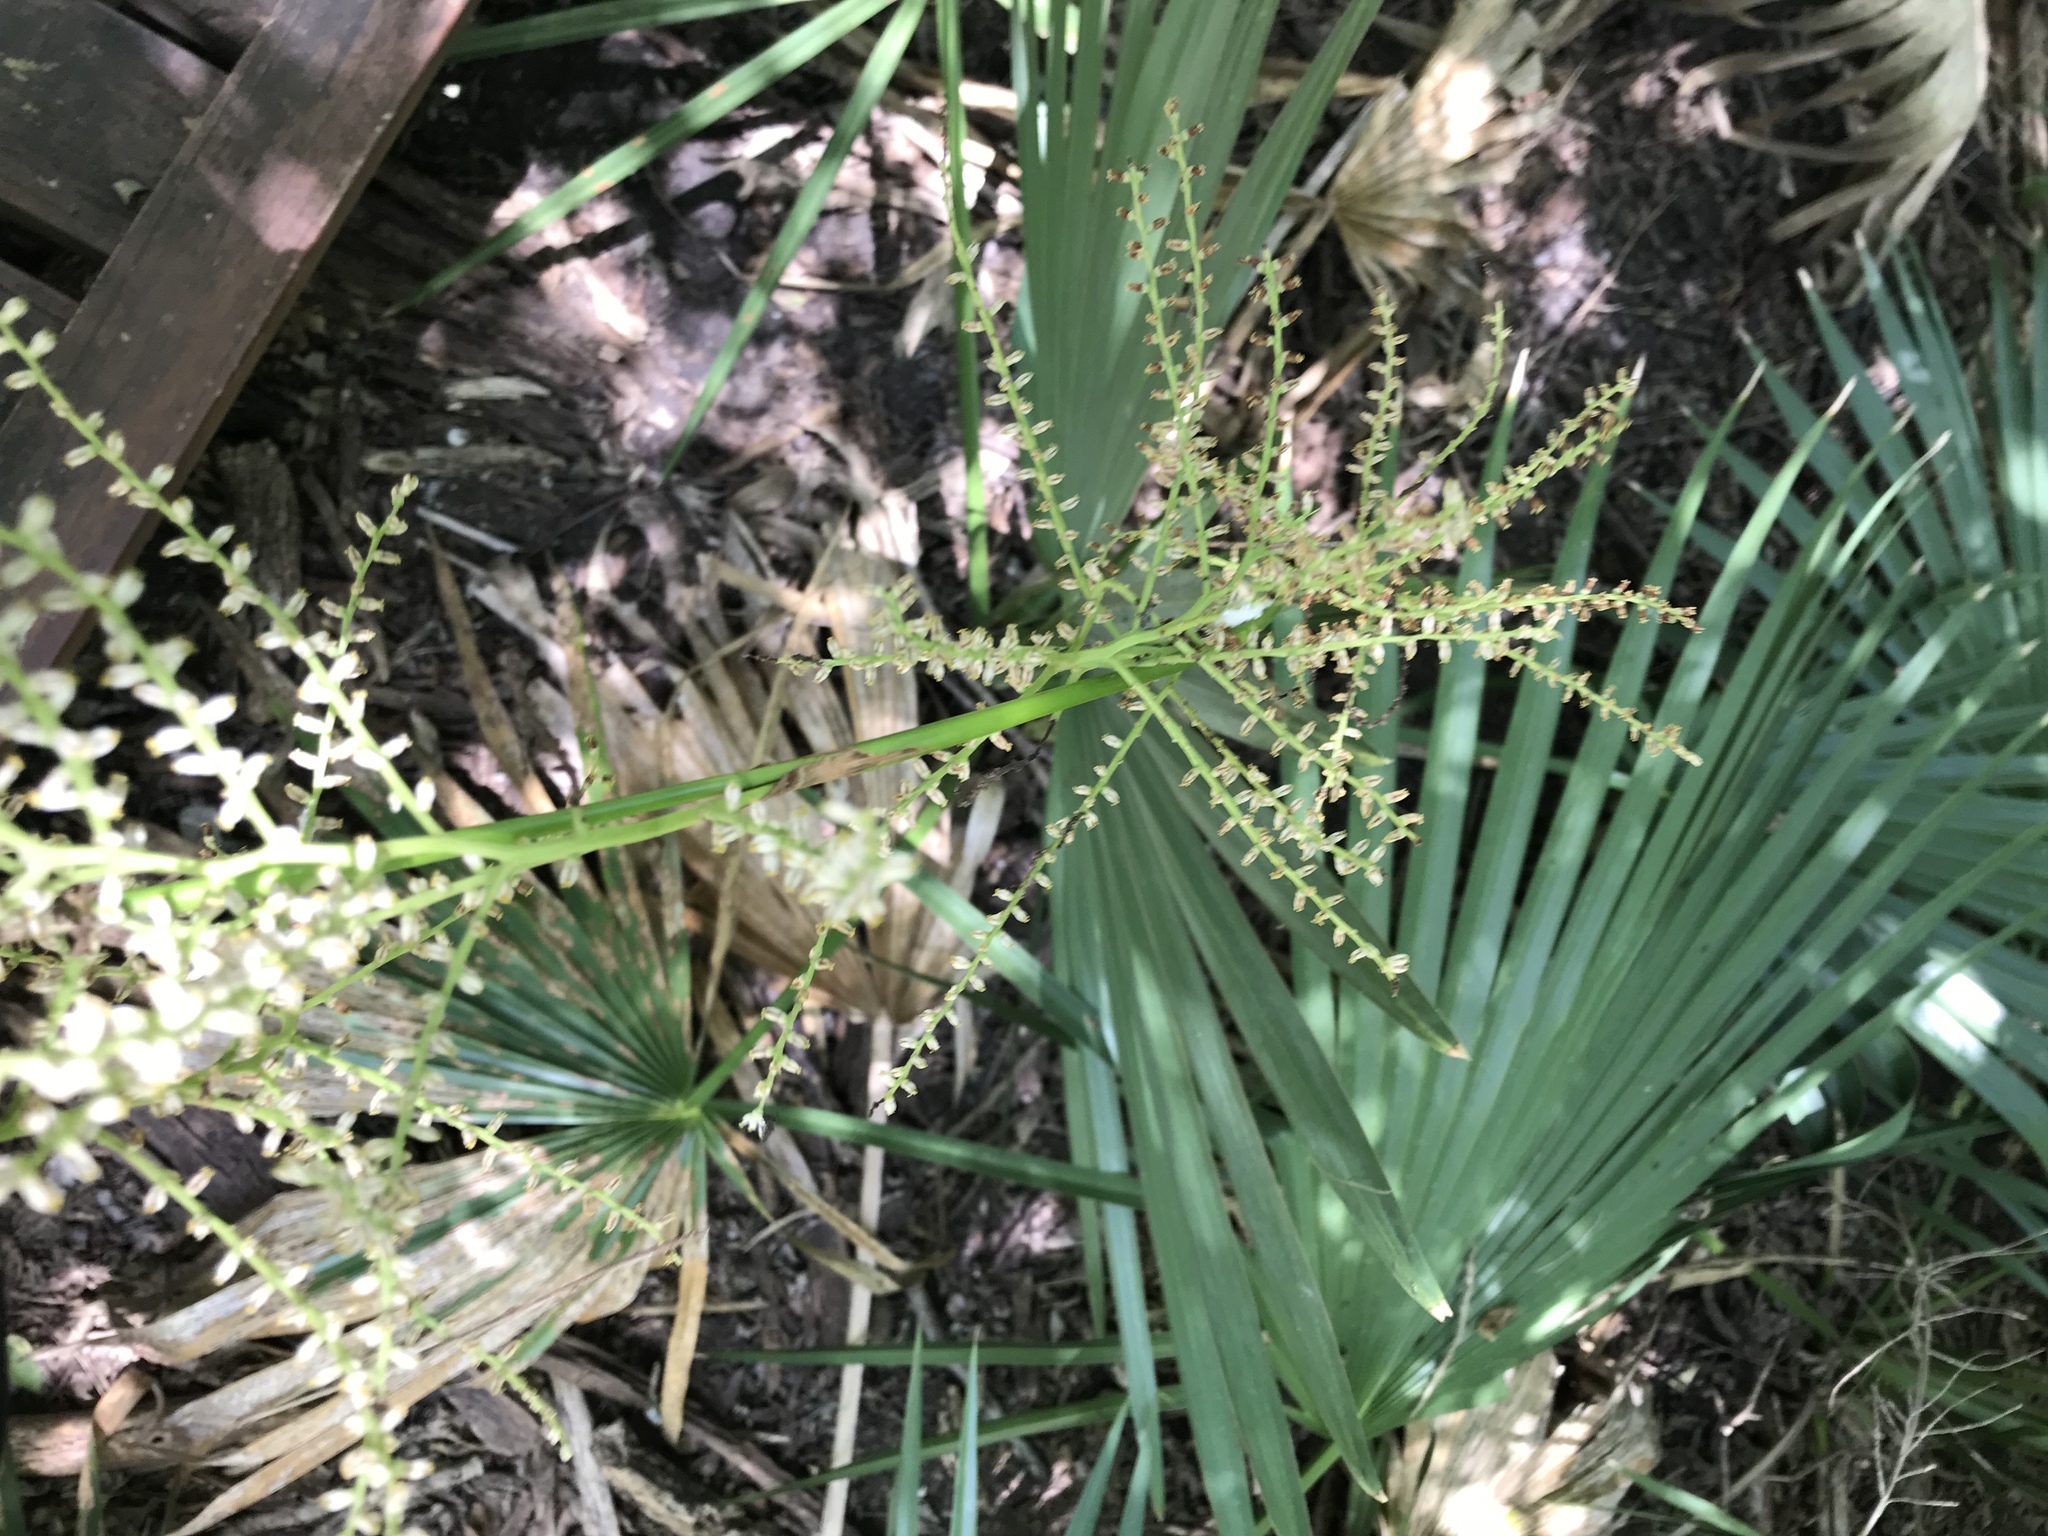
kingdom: Plantae
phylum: Tracheophyta
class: Liliopsida
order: Arecales
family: Arecaceae
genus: Sabal
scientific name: Sabal minor
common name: Dwarf palmetto
